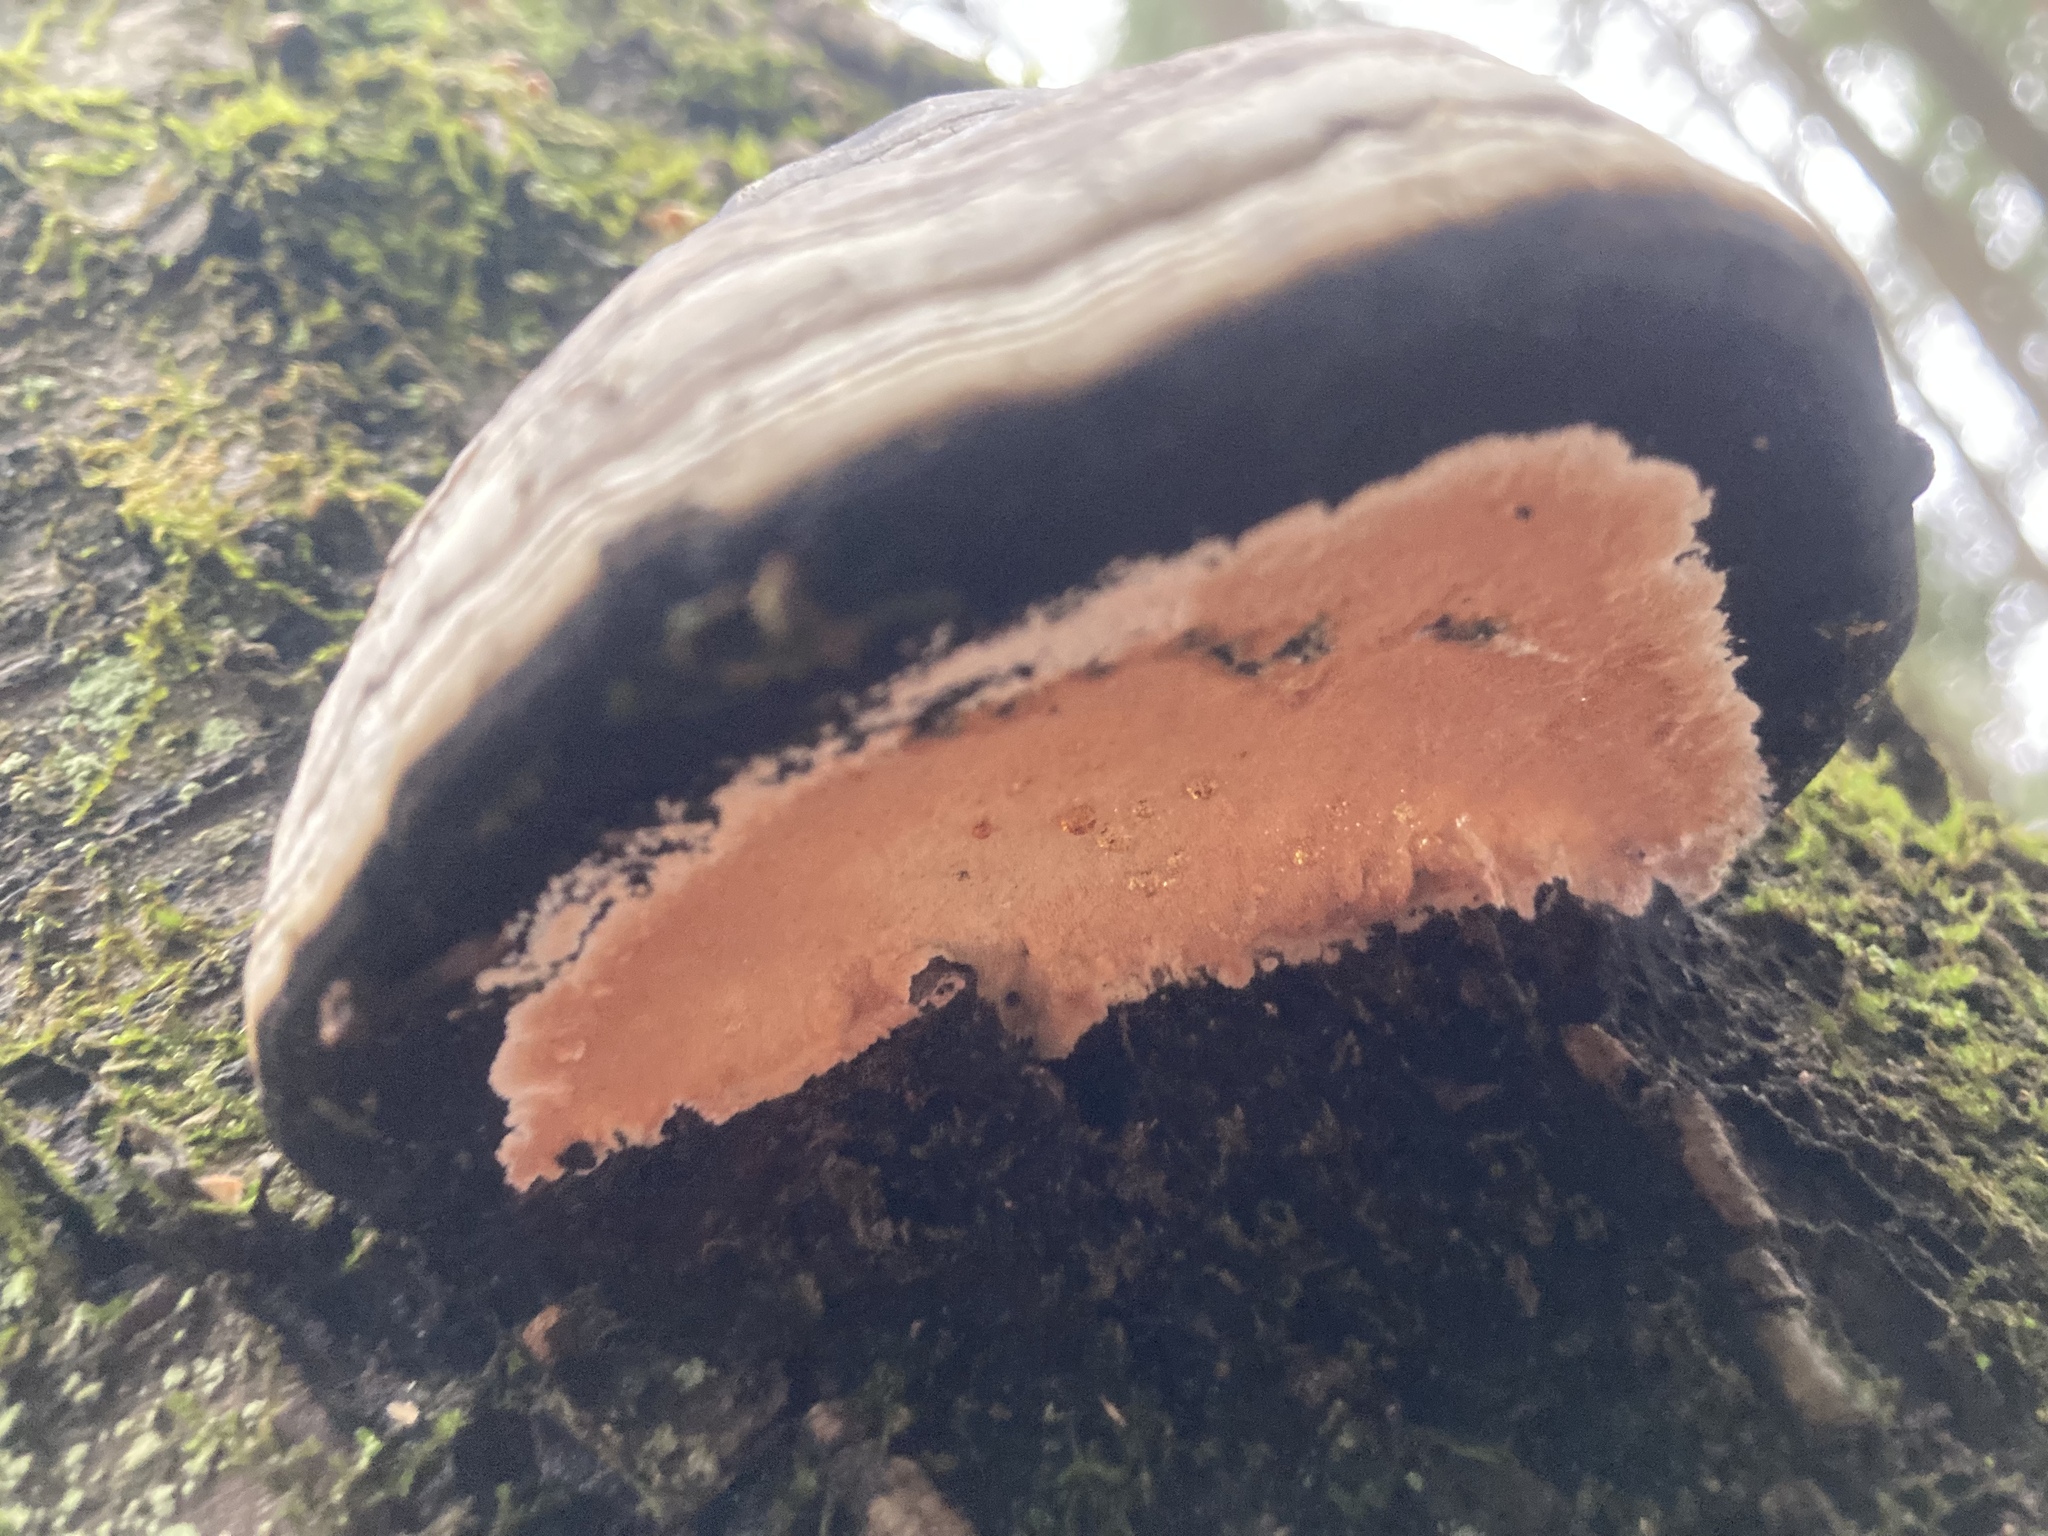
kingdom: Fungi
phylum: Basidiomycota
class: Agaricomycetes
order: Polyporales
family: Polyporaceae
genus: Fomes
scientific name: Fomes fomentarius
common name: Hoof fungus
